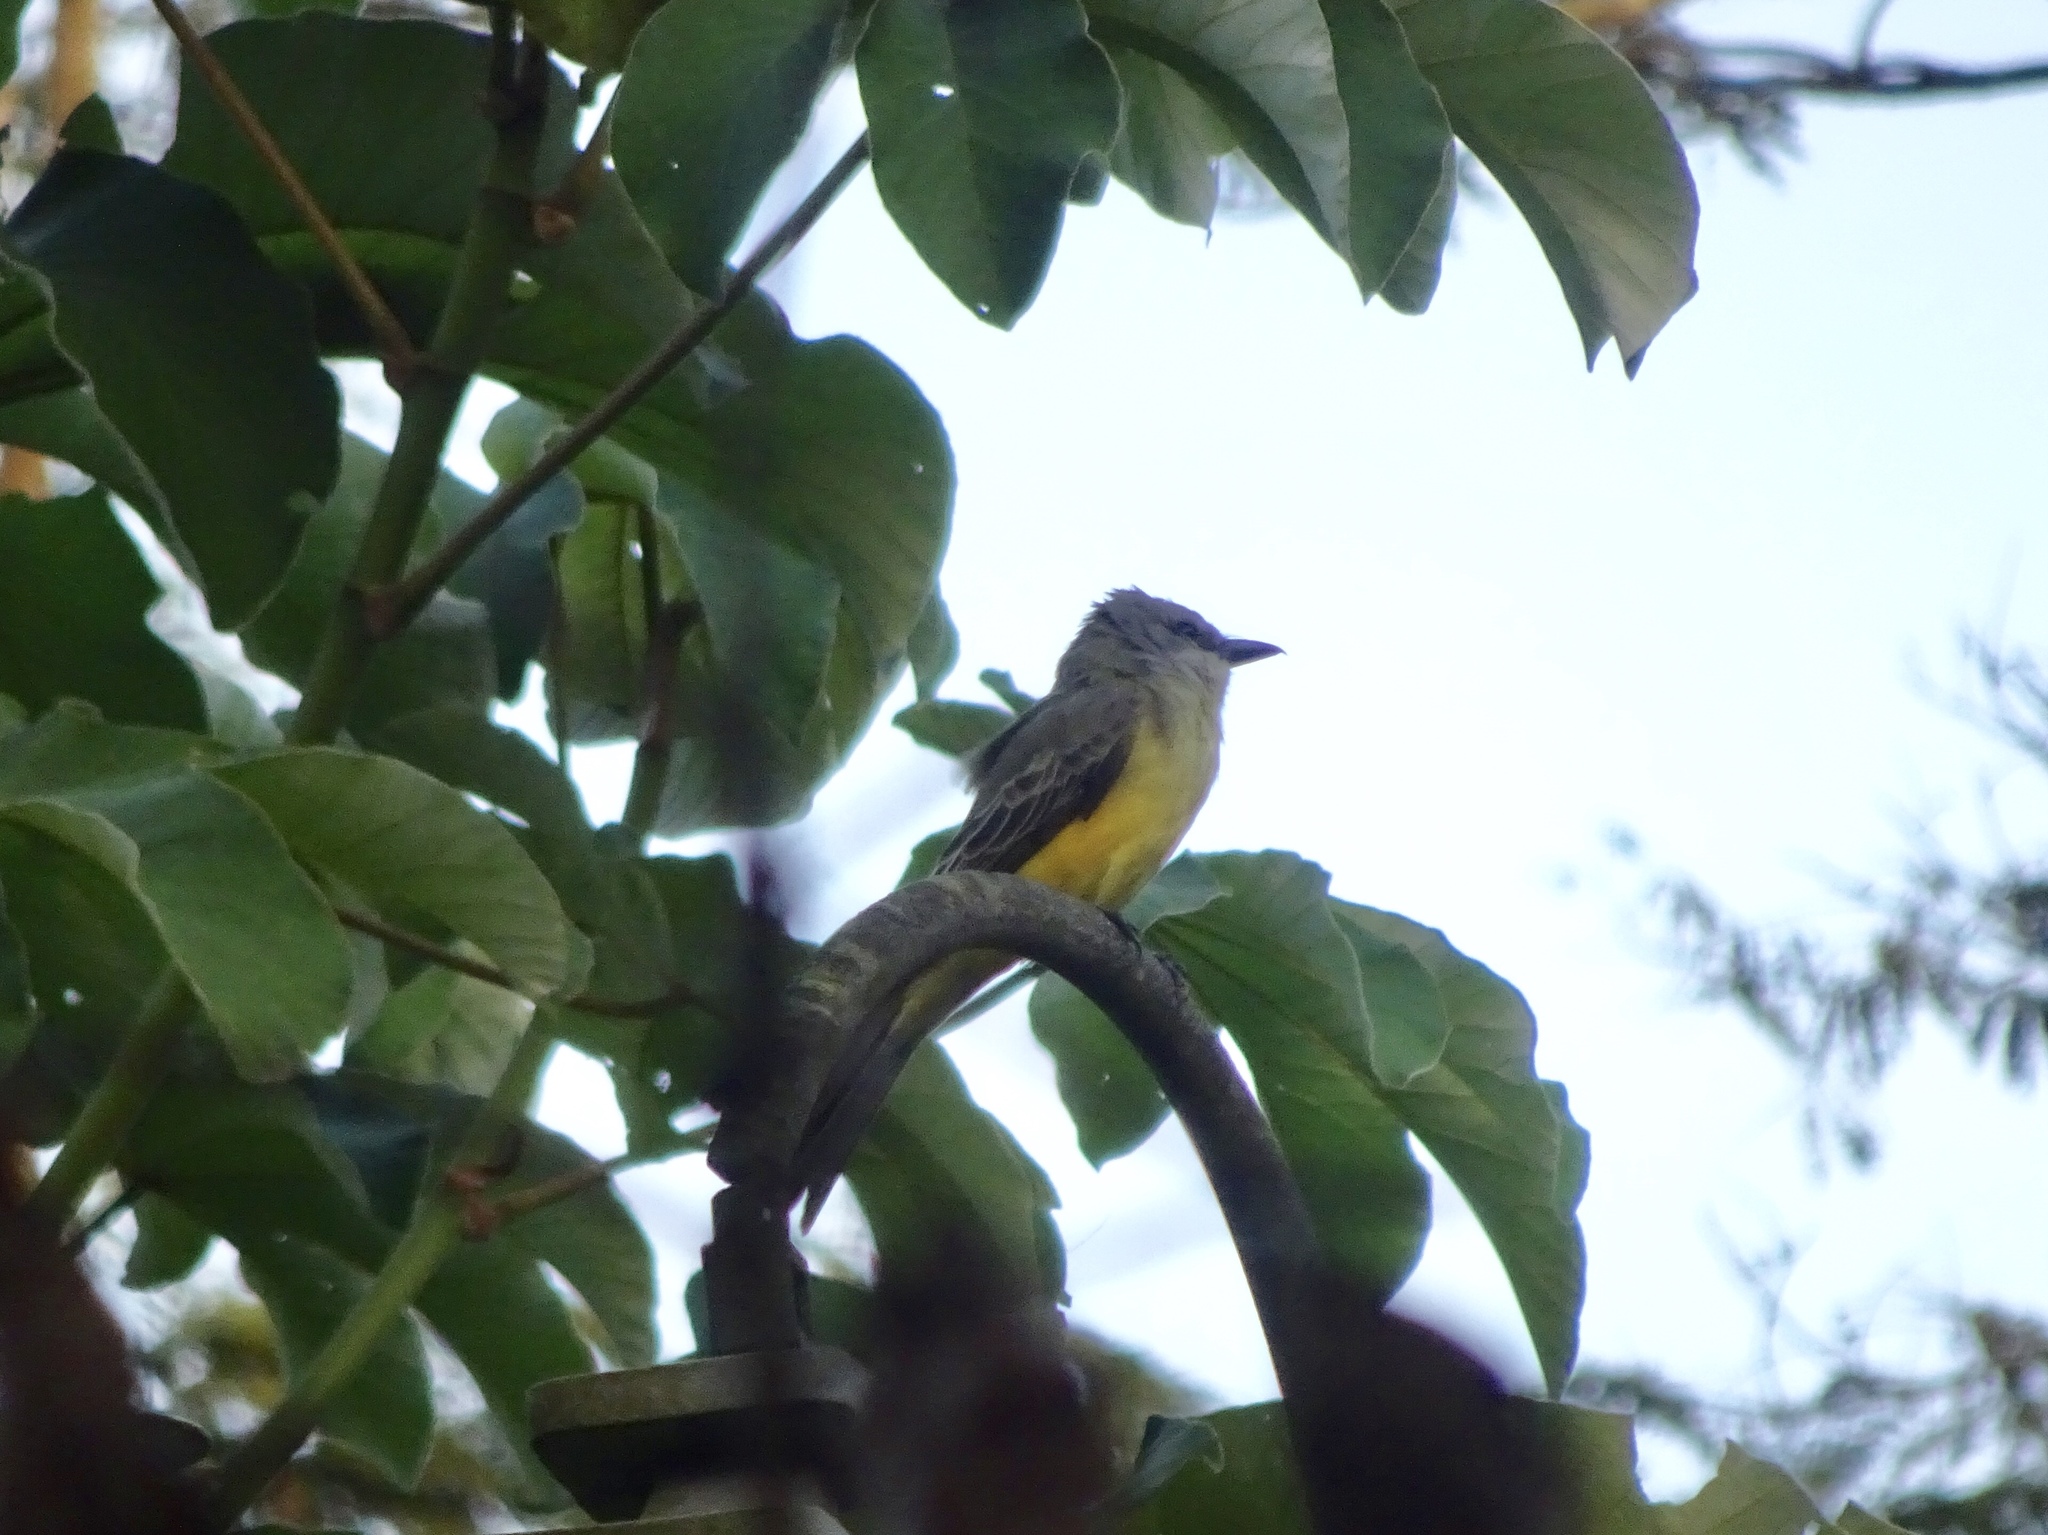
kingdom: Animalia
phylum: Chordata
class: Aves
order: Passeriformes
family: Tyrannidae
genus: Tyrannus
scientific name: Tyrannus melancholicus
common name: Tropical kingbird
